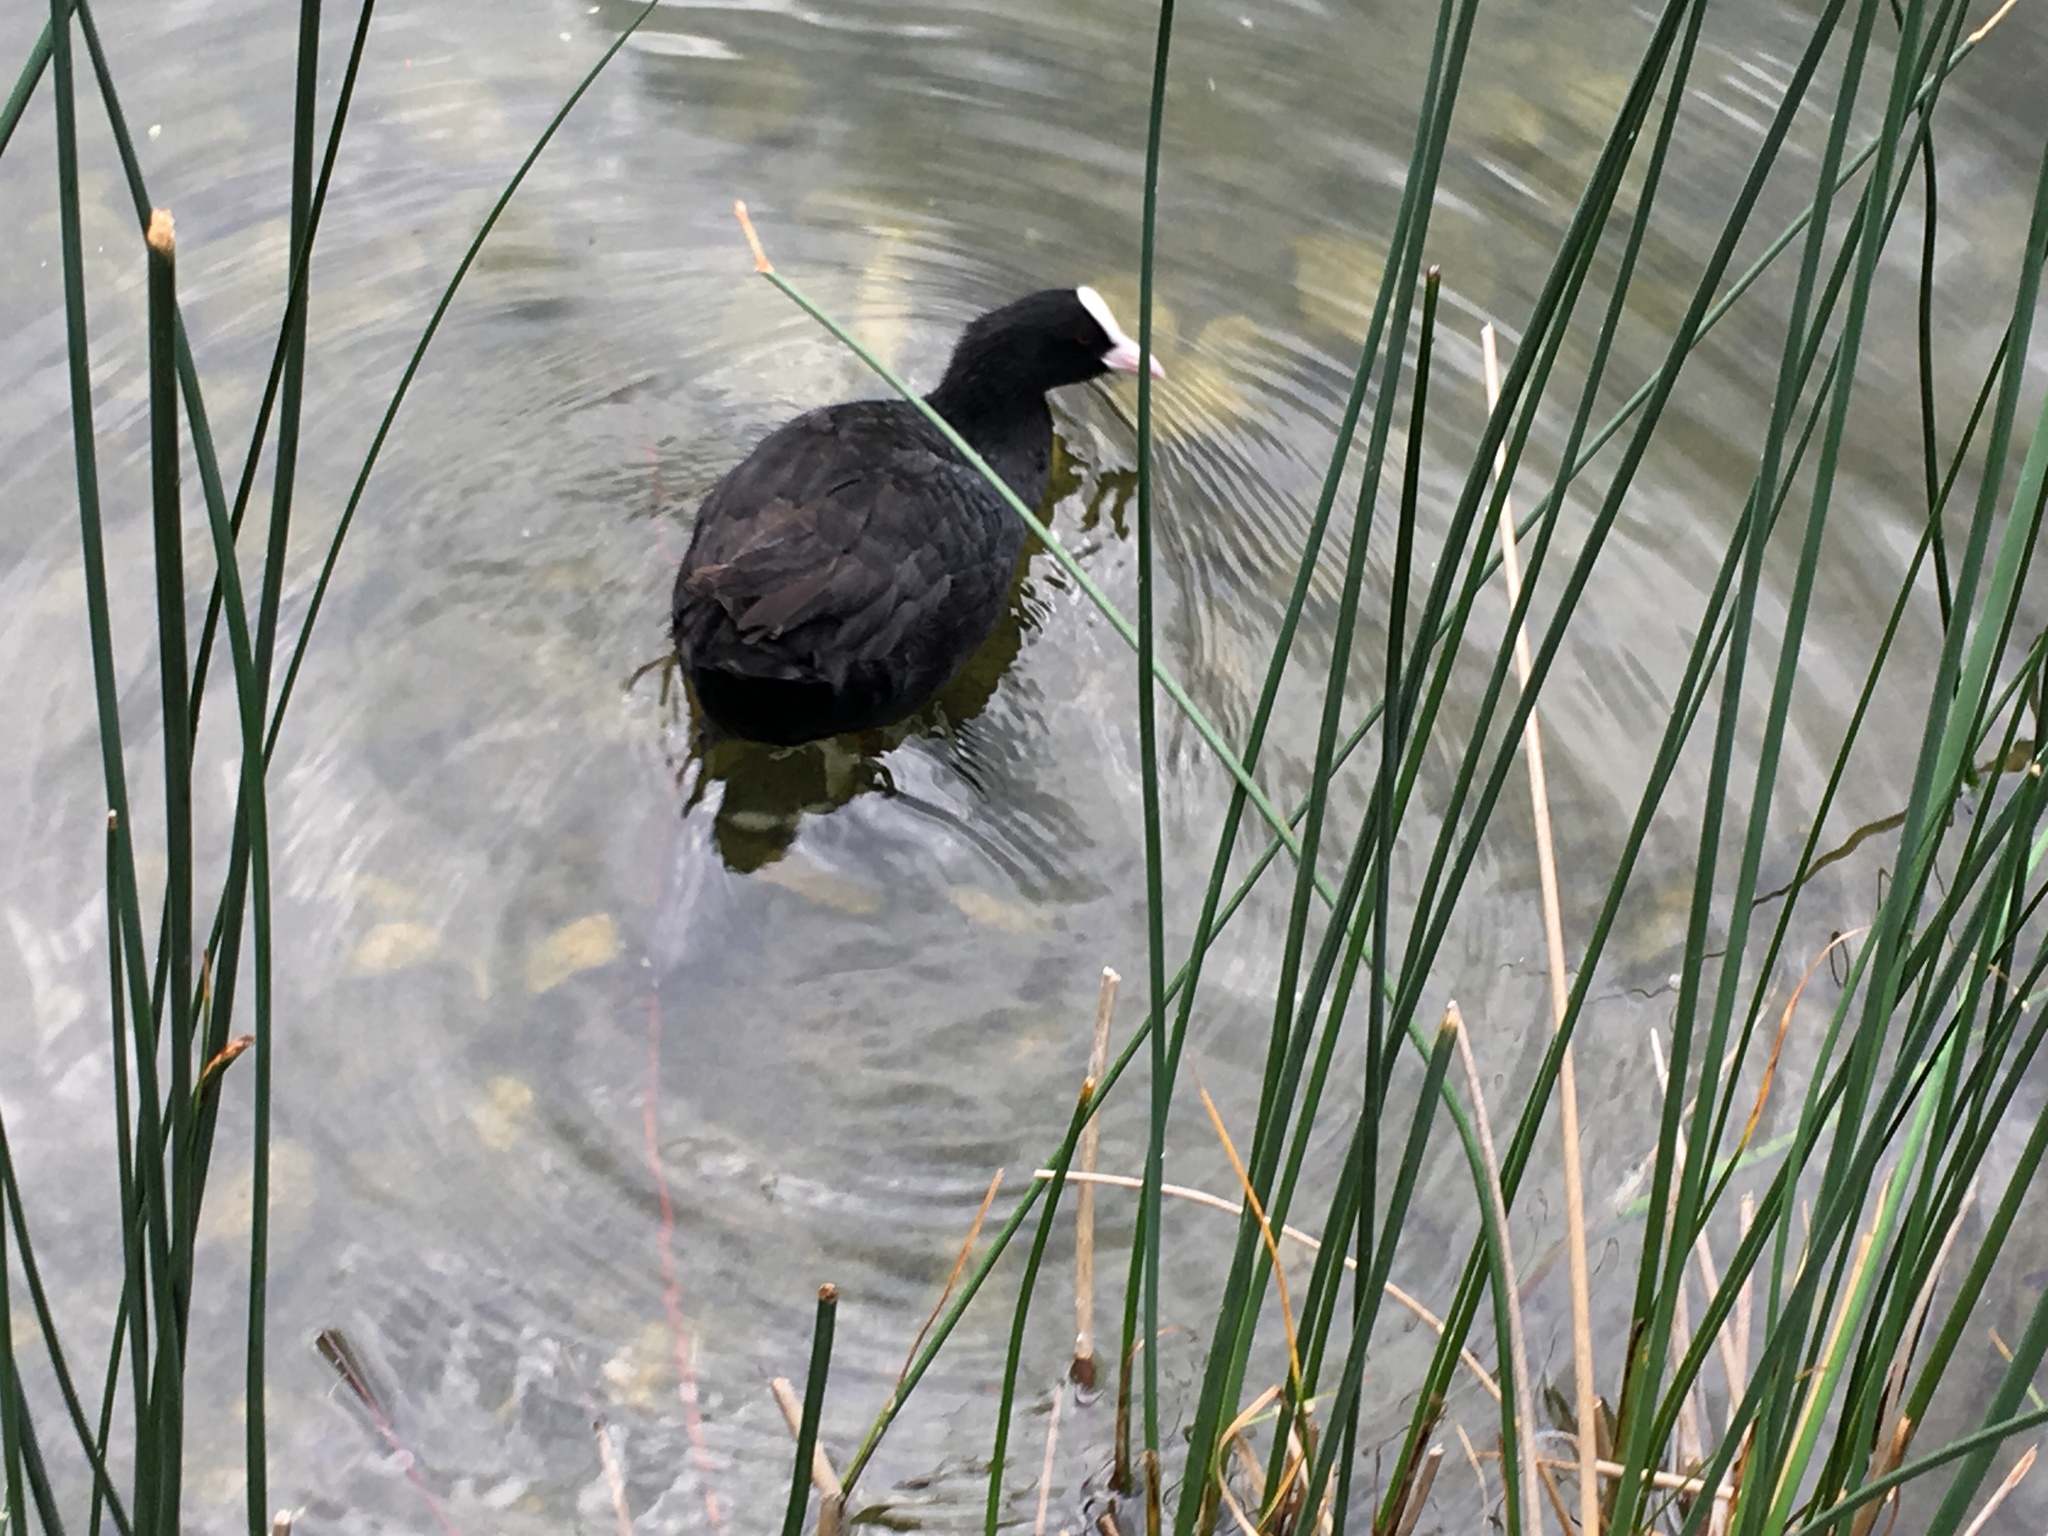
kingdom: Animalia
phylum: Chordata
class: Aves
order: Gruiformes
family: Rallidae
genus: Fulica
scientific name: Fulica atra
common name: Eurasian coot
